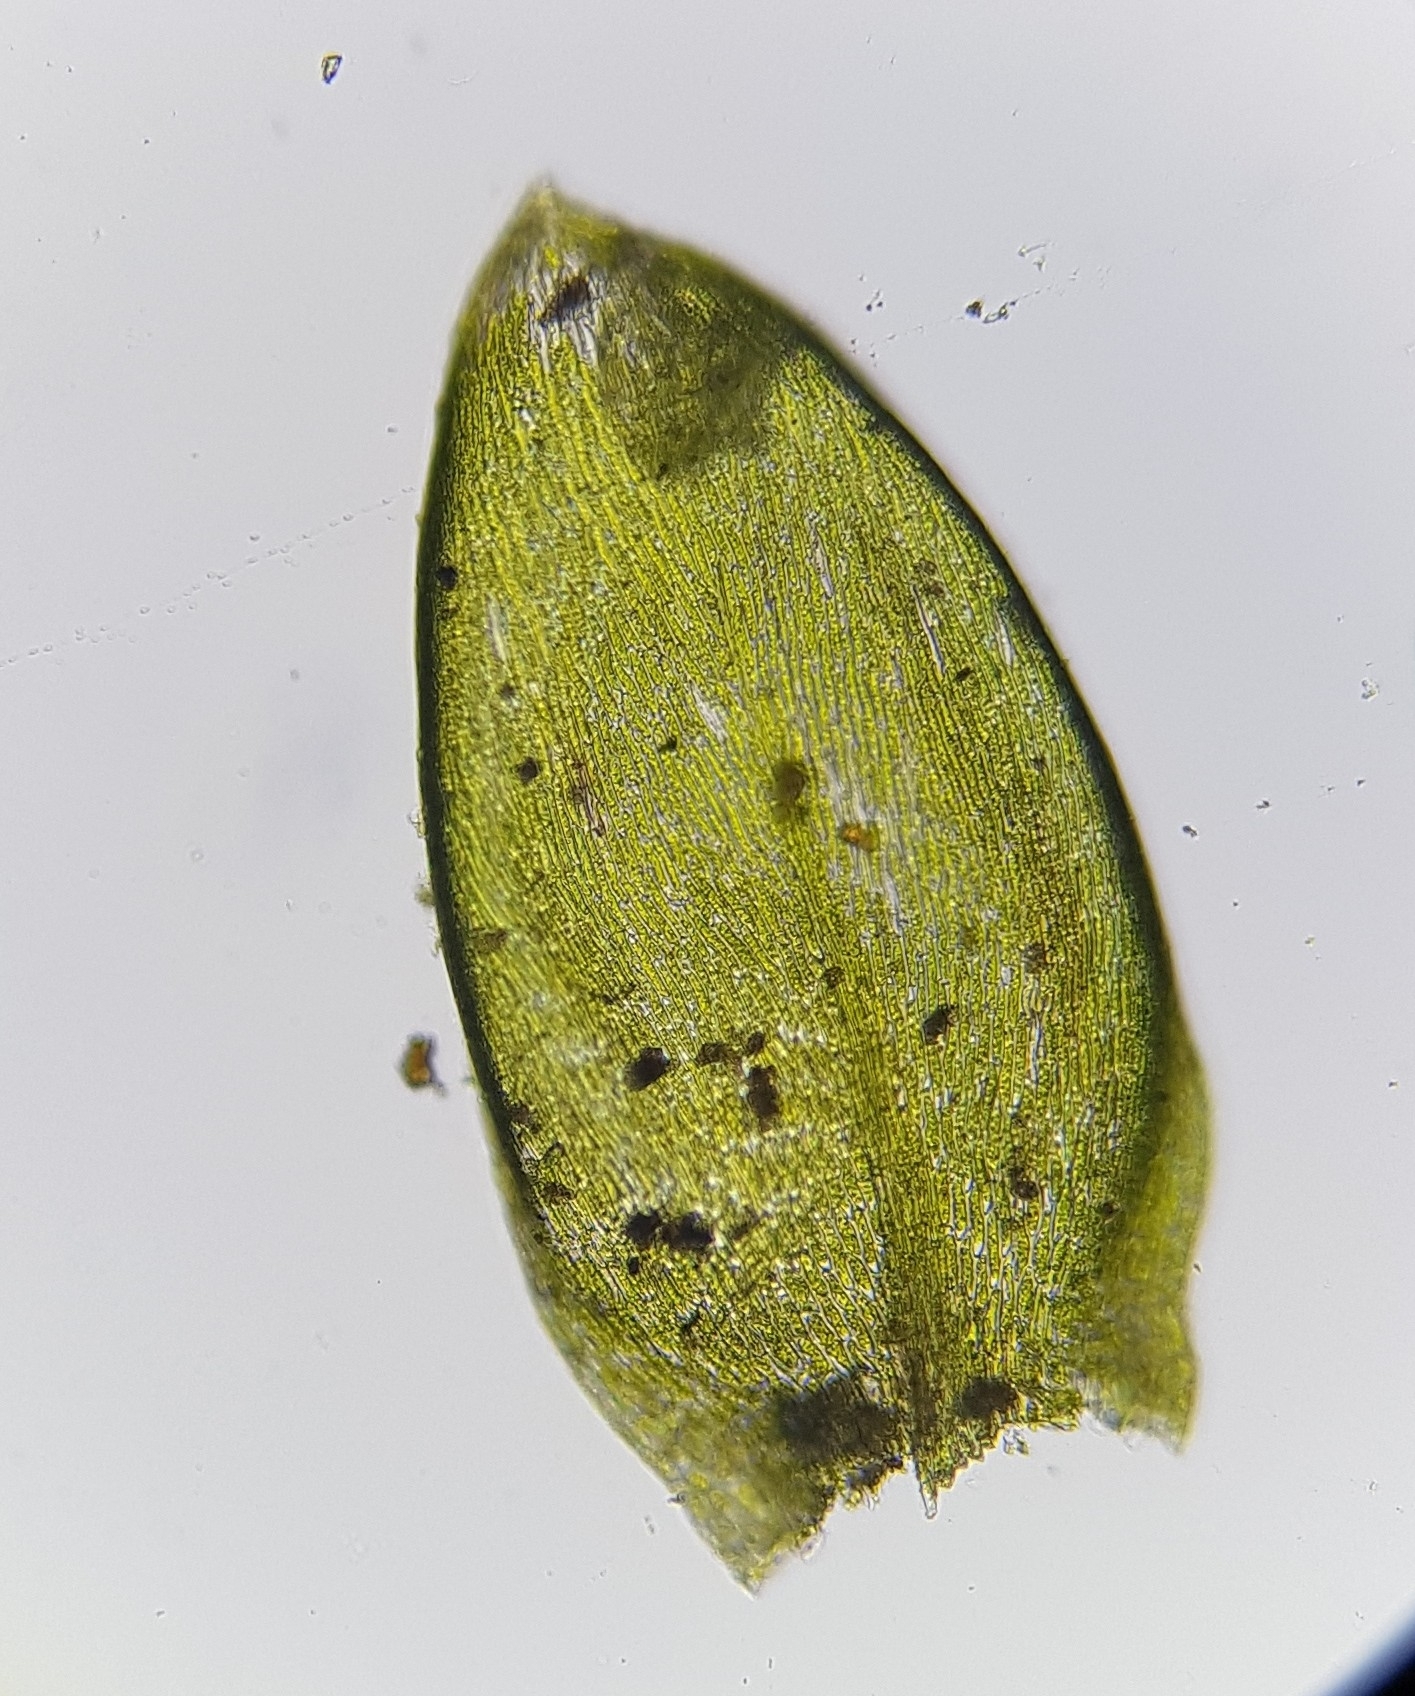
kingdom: Plantae
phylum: Bryophyta
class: Bryopsida
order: Hypnales
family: Brachytheciaceae
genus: Rhynchostegium
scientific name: Rhynchostegium murale
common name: Wall feather-moss
